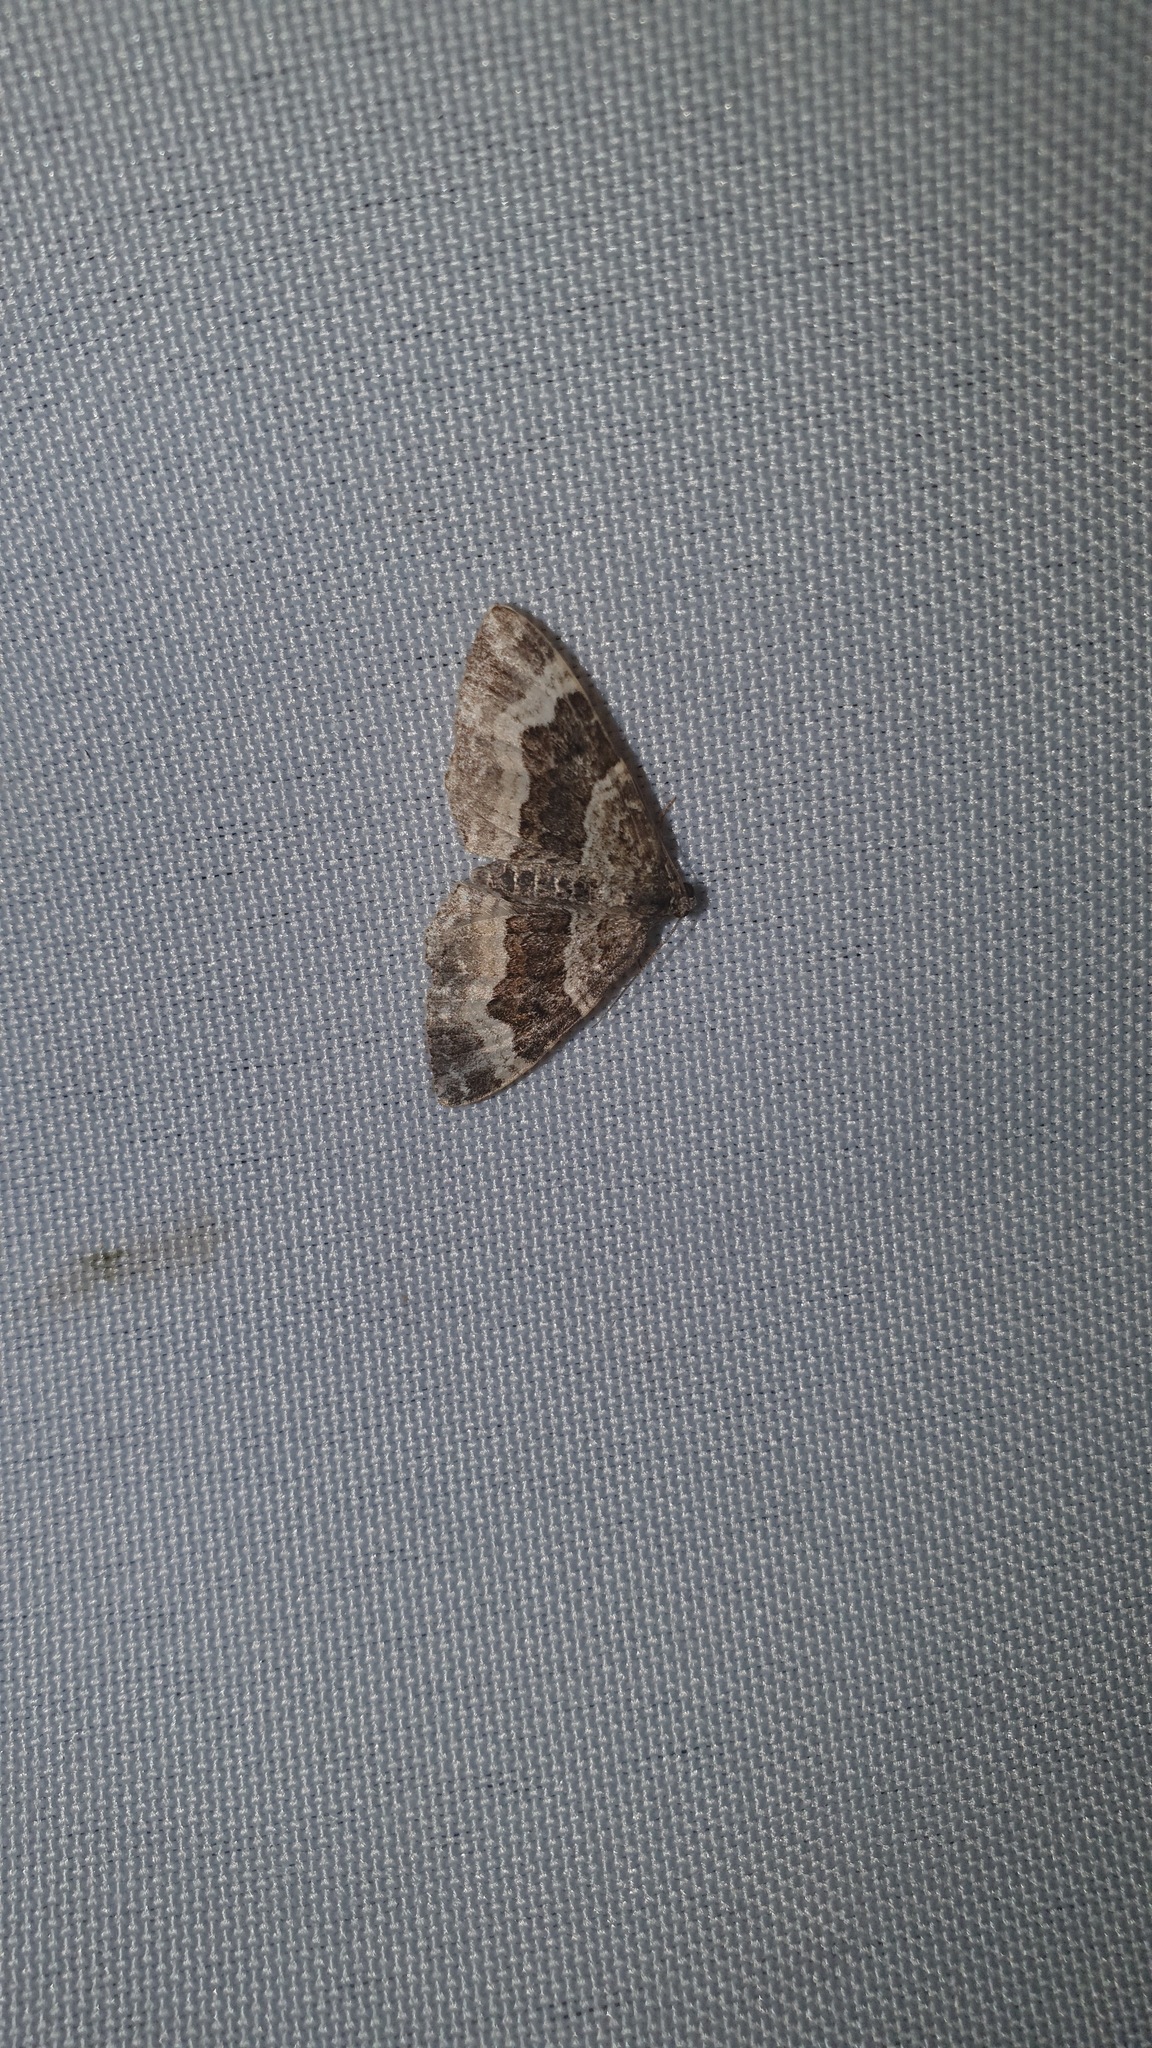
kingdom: Animalia
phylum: Arthropoda
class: Insecta
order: Lepidoptera
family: Geometridae
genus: Epirrhoe
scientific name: Epirrhoe alternata
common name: Common carpet
